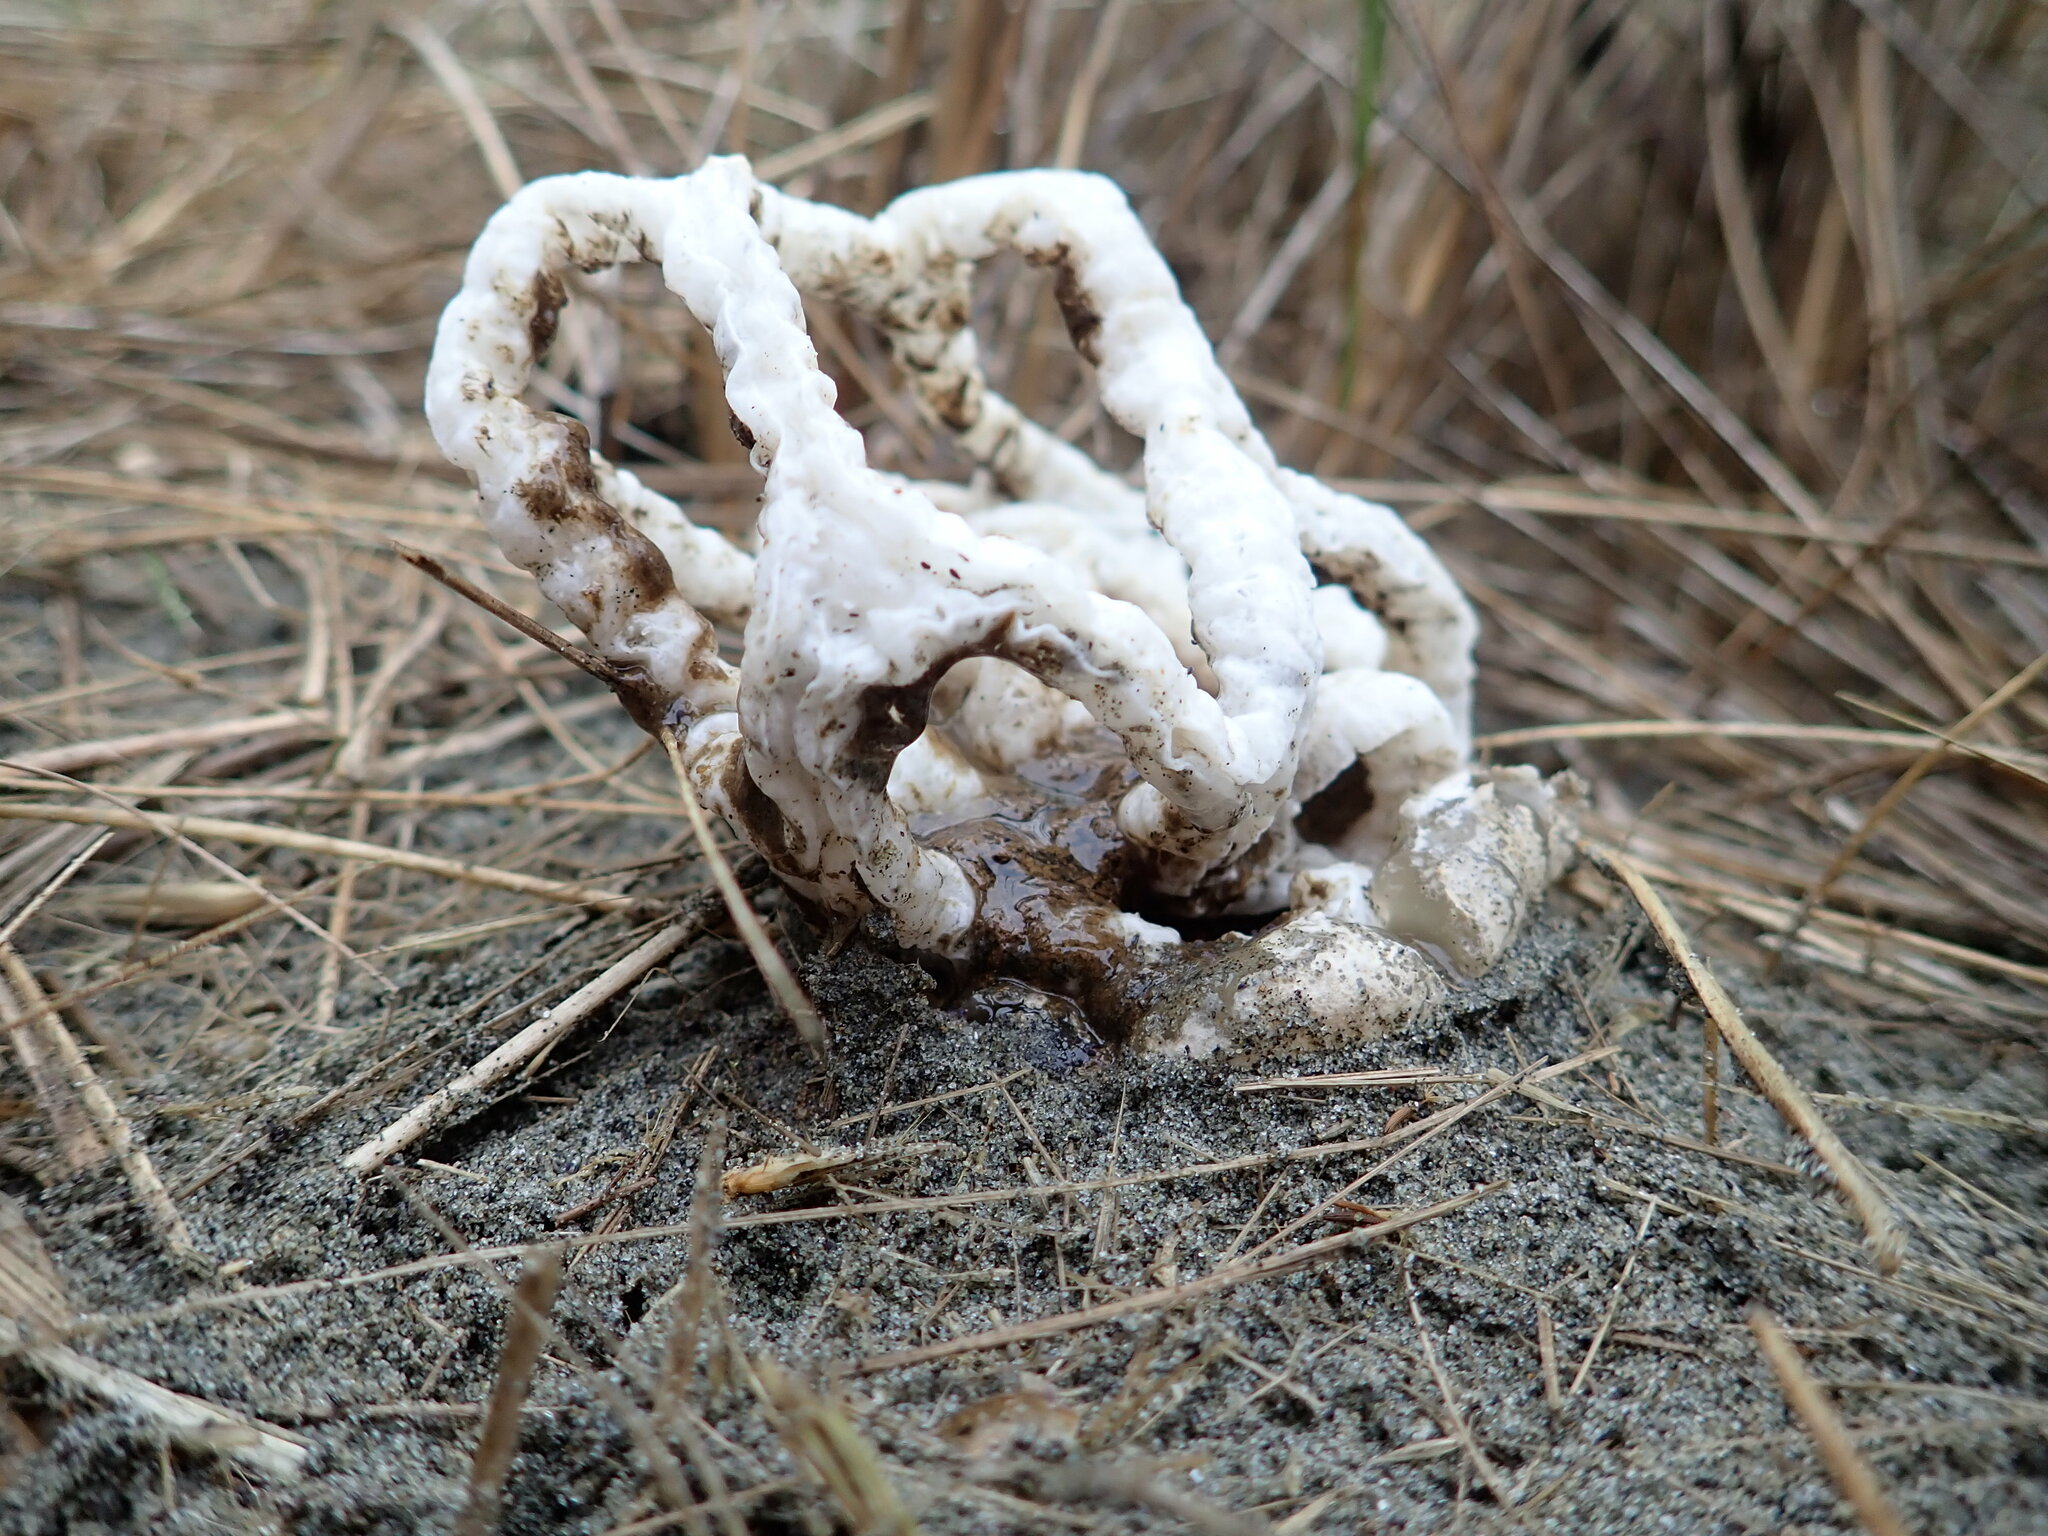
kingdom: Fungi
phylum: Basidiomycota
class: Agaricomycetes
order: Phallales
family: Phallaceae
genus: Ileodictyon
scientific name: Ileodictyon cibarium
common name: Basket fungus
